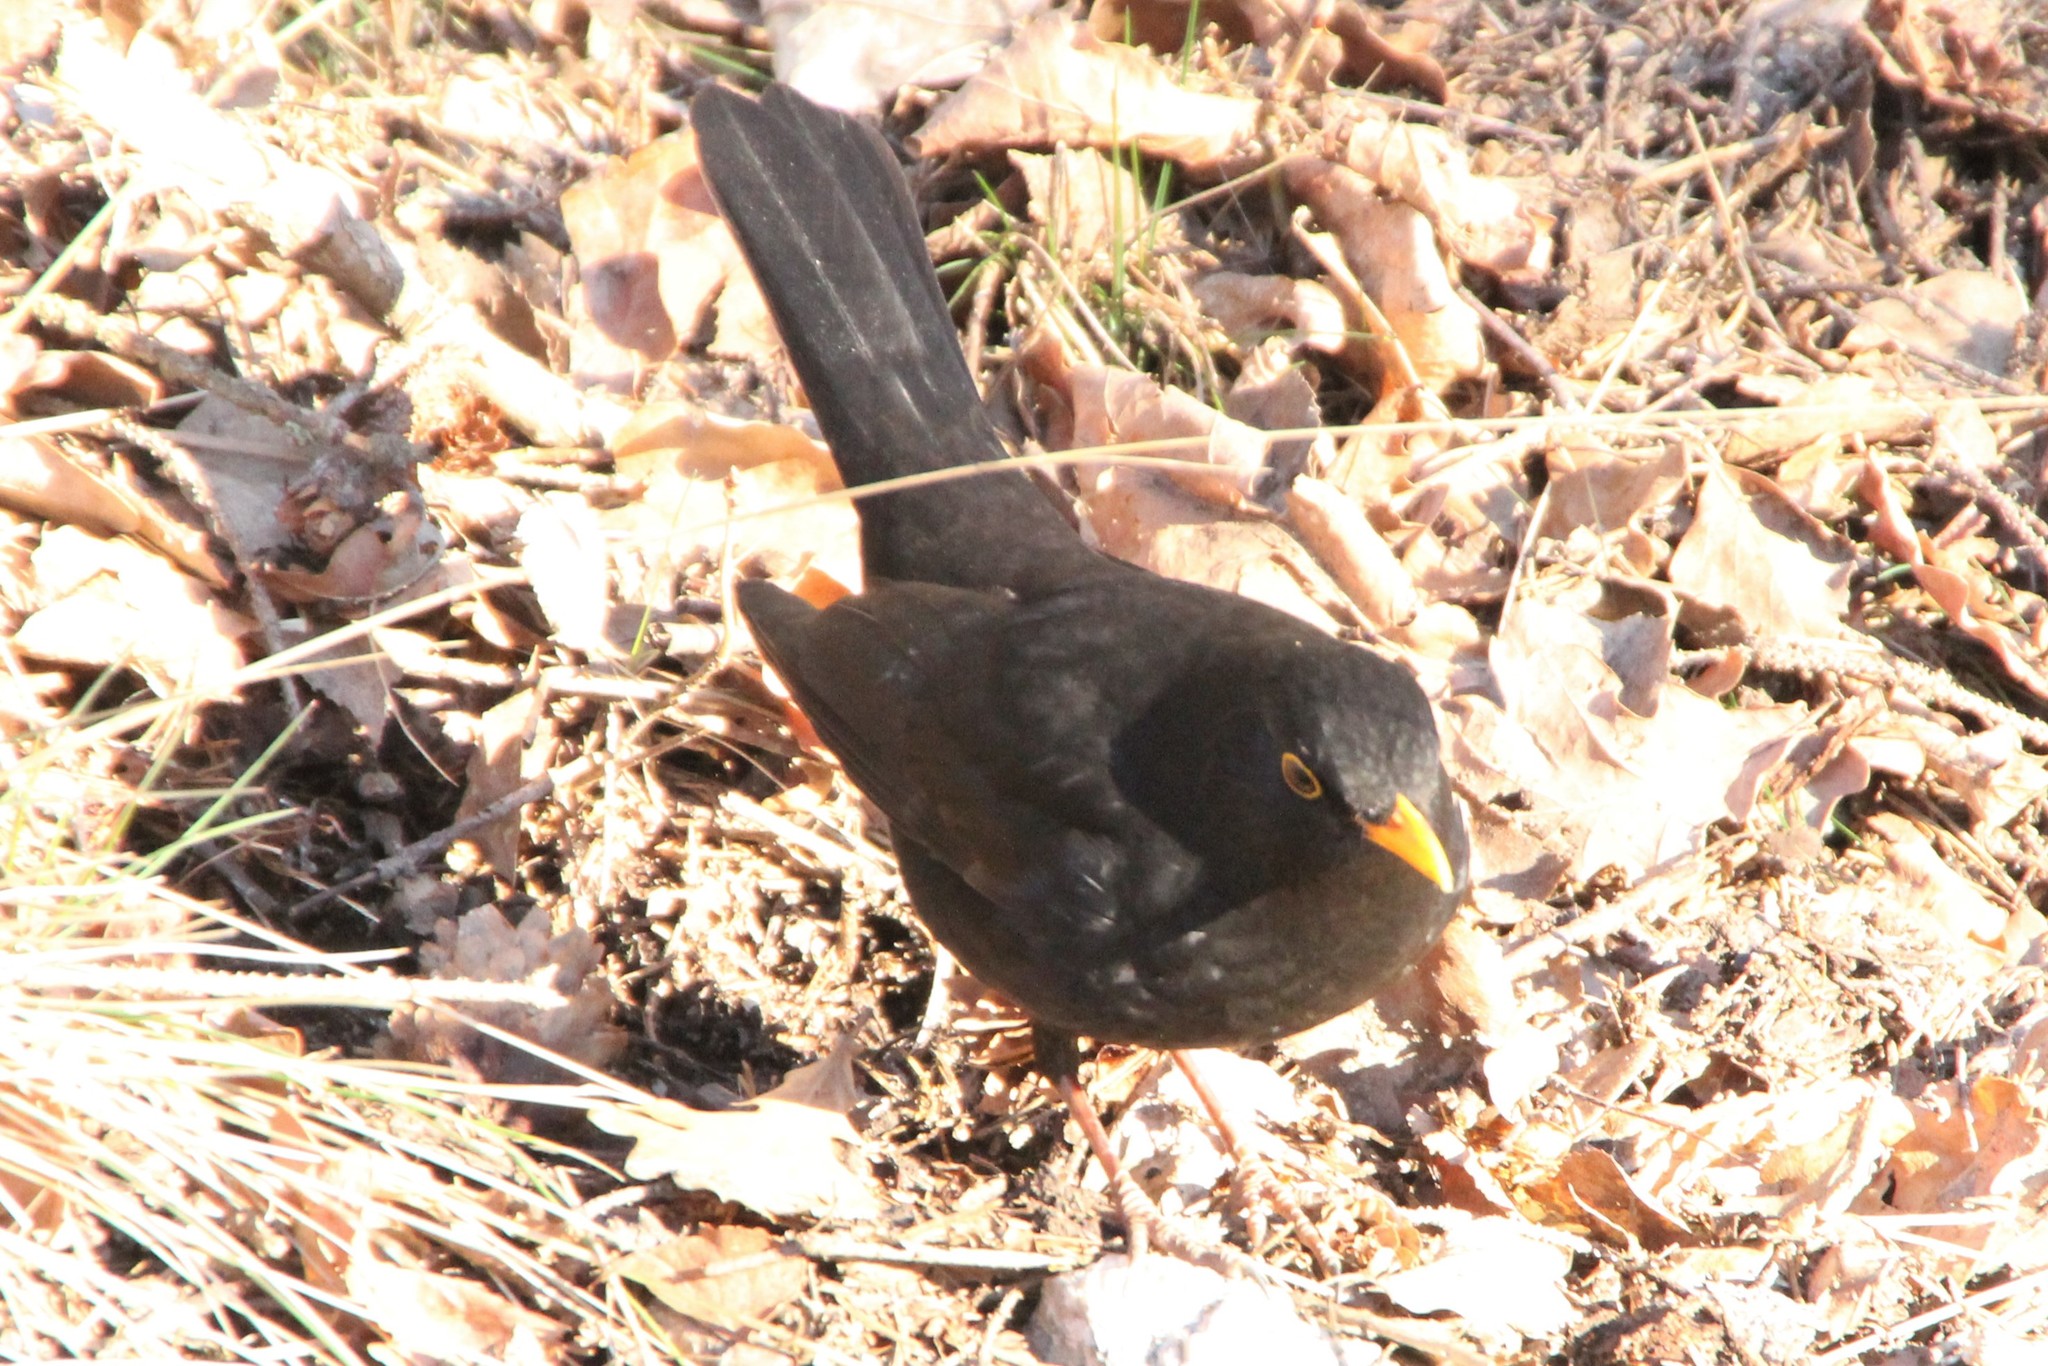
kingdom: Animalia
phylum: Chordata
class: Aves
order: Passeriformes
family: Turdidae
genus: Turdus
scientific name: Turdus merula
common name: Common blackbird
